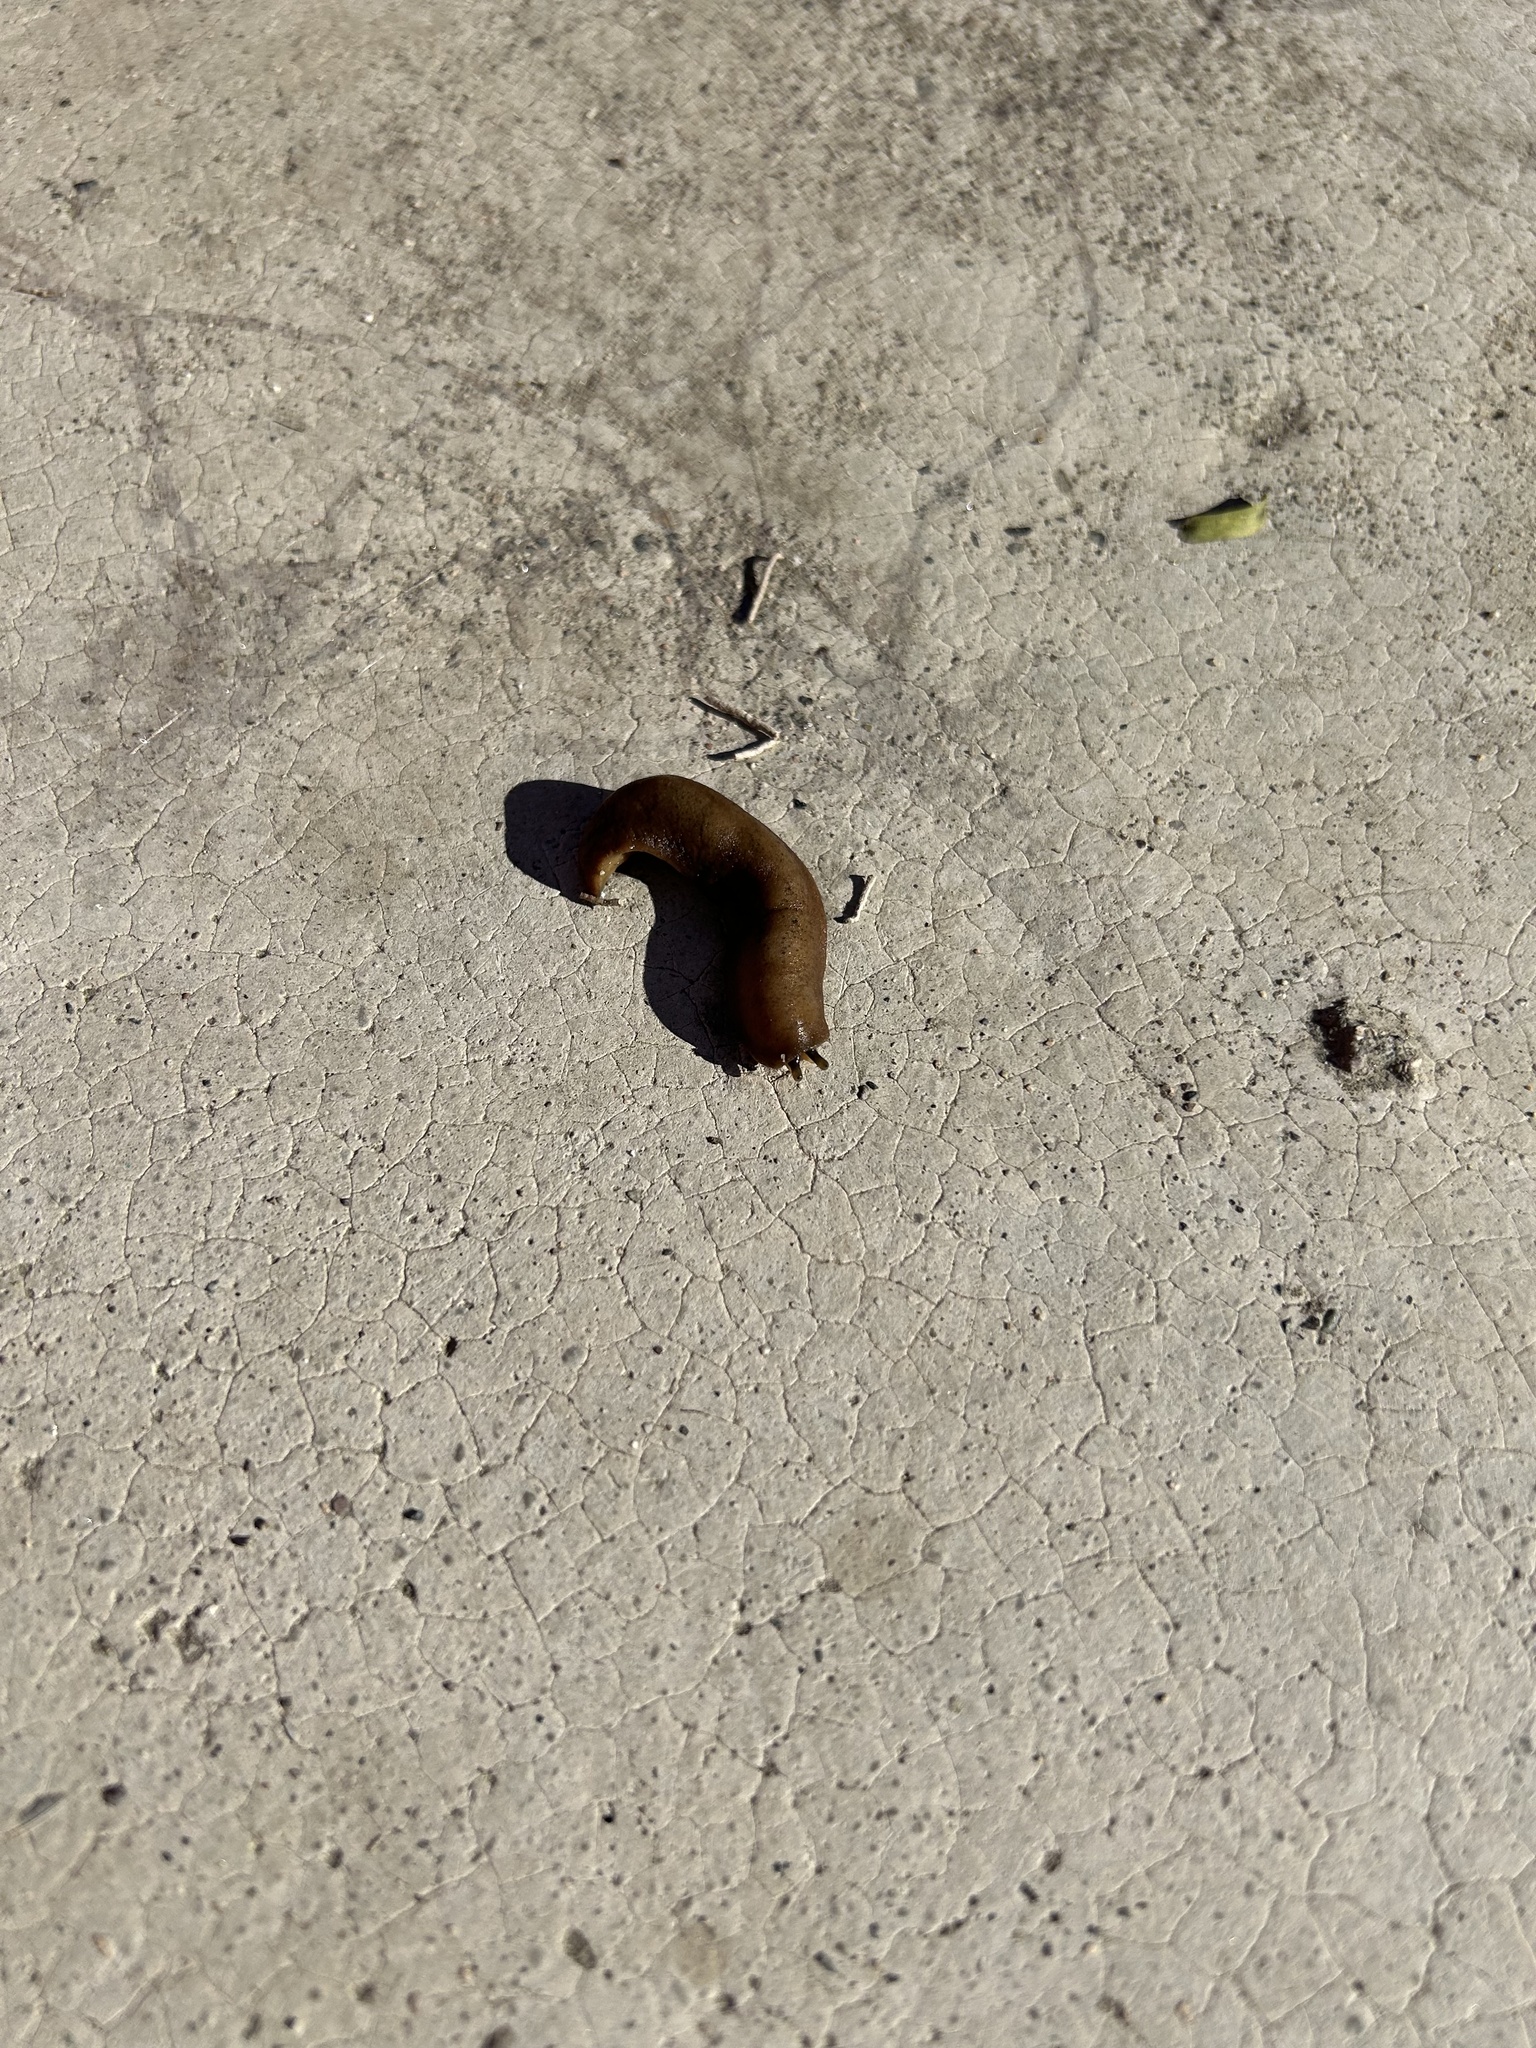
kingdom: Animalia
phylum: Mollusca
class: Gastropoda
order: Systellommatophora
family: Veronicellidae
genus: Sarasinula
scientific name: Sarasinula plebeia
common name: Caribbean leatherleaf
